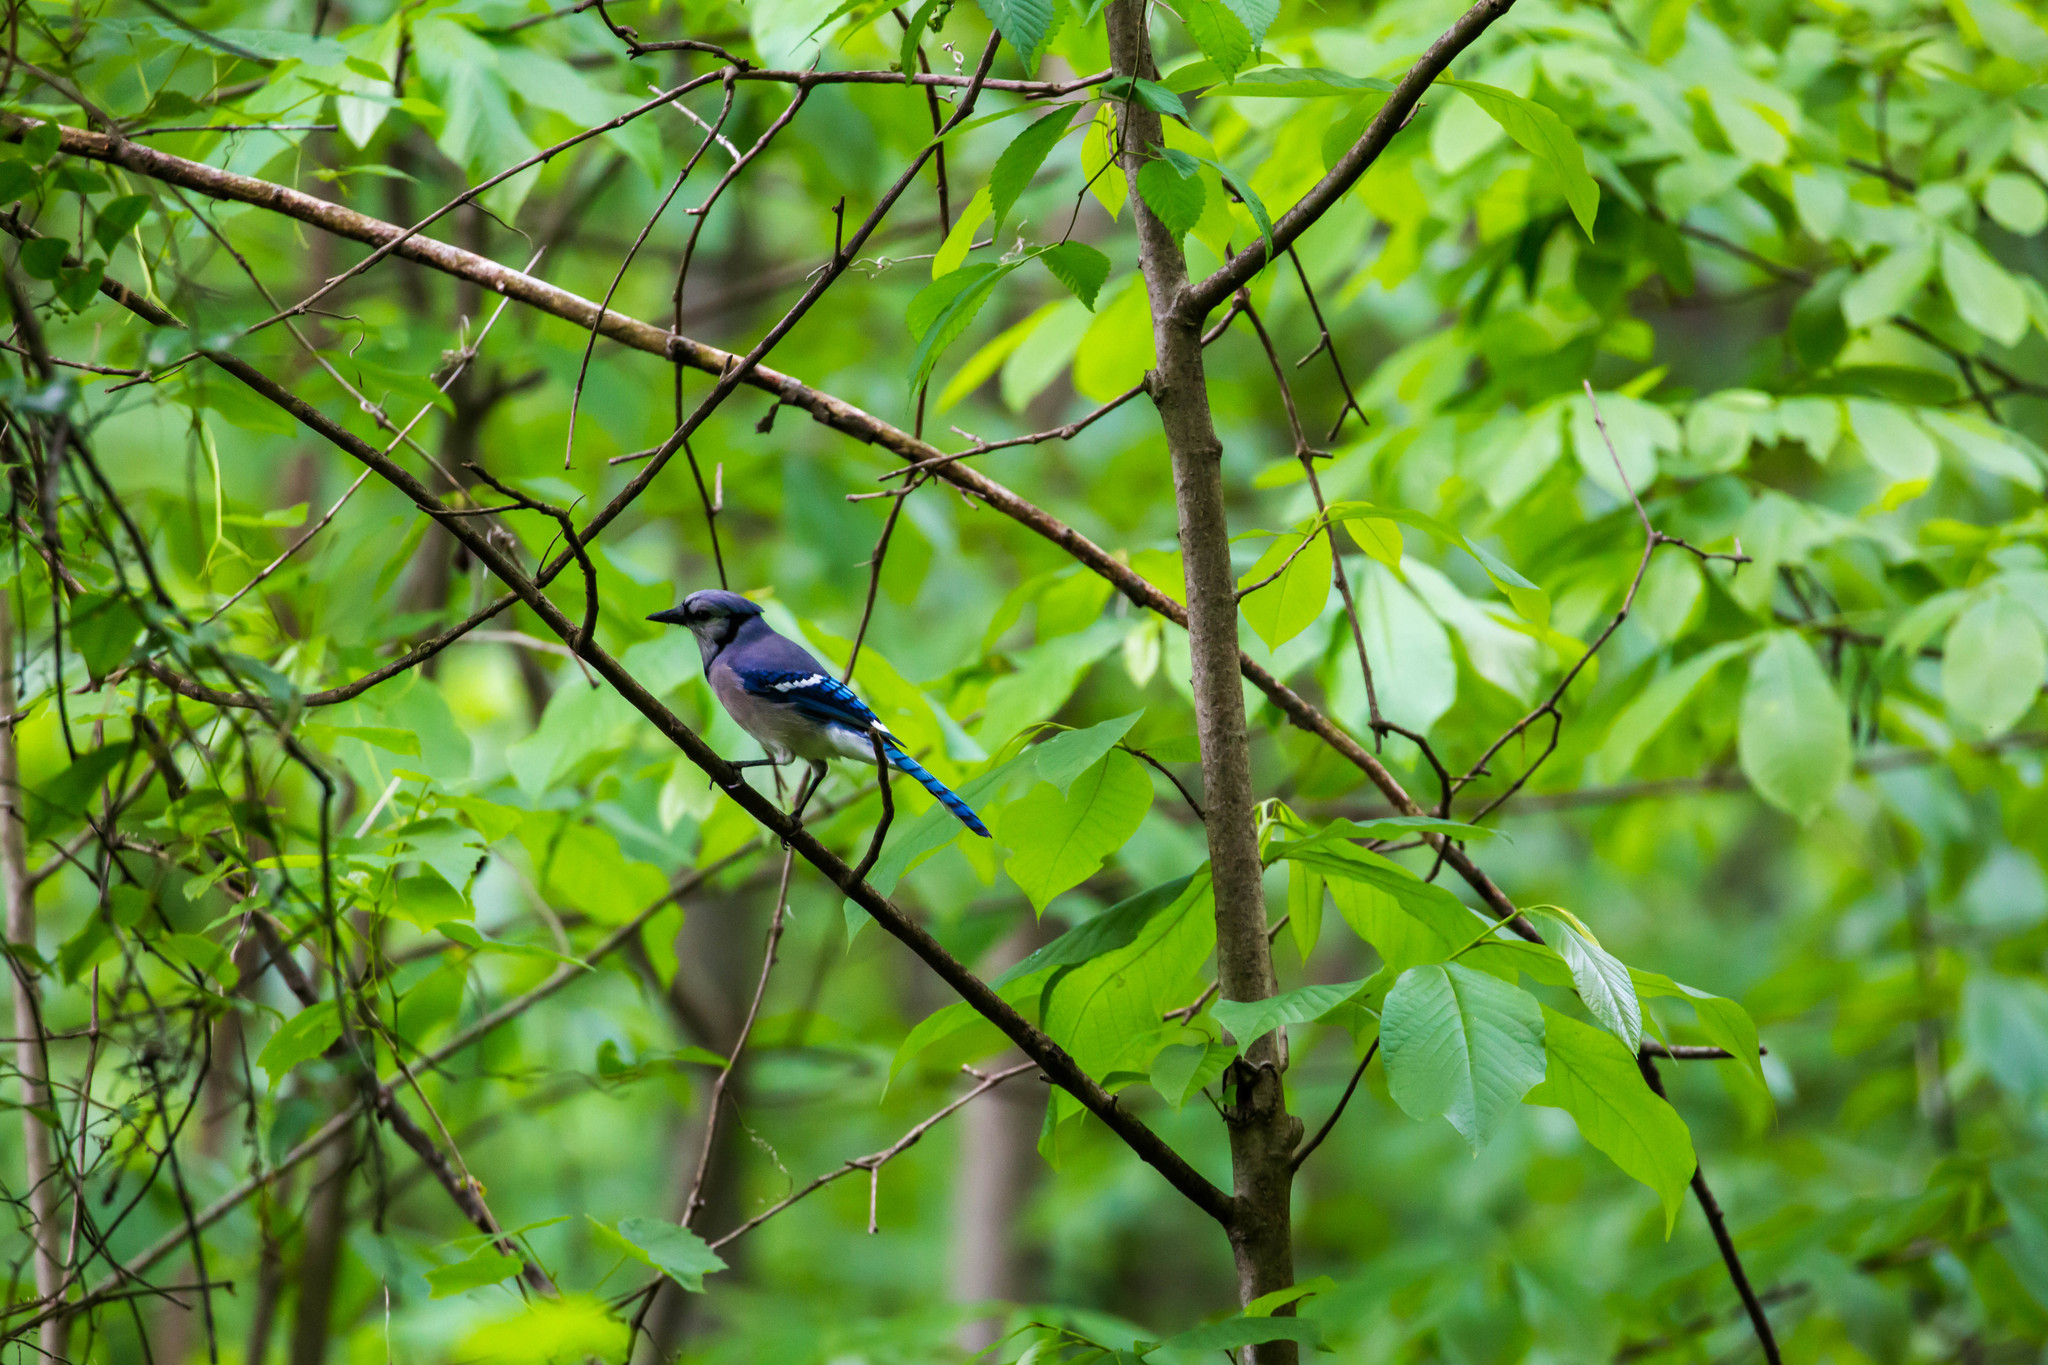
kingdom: Animalia
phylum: Chordata
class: Aves
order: Passeriformes
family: Corvidae
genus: Cyanocitta
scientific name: Cyanocitta cristata
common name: Blue jay
